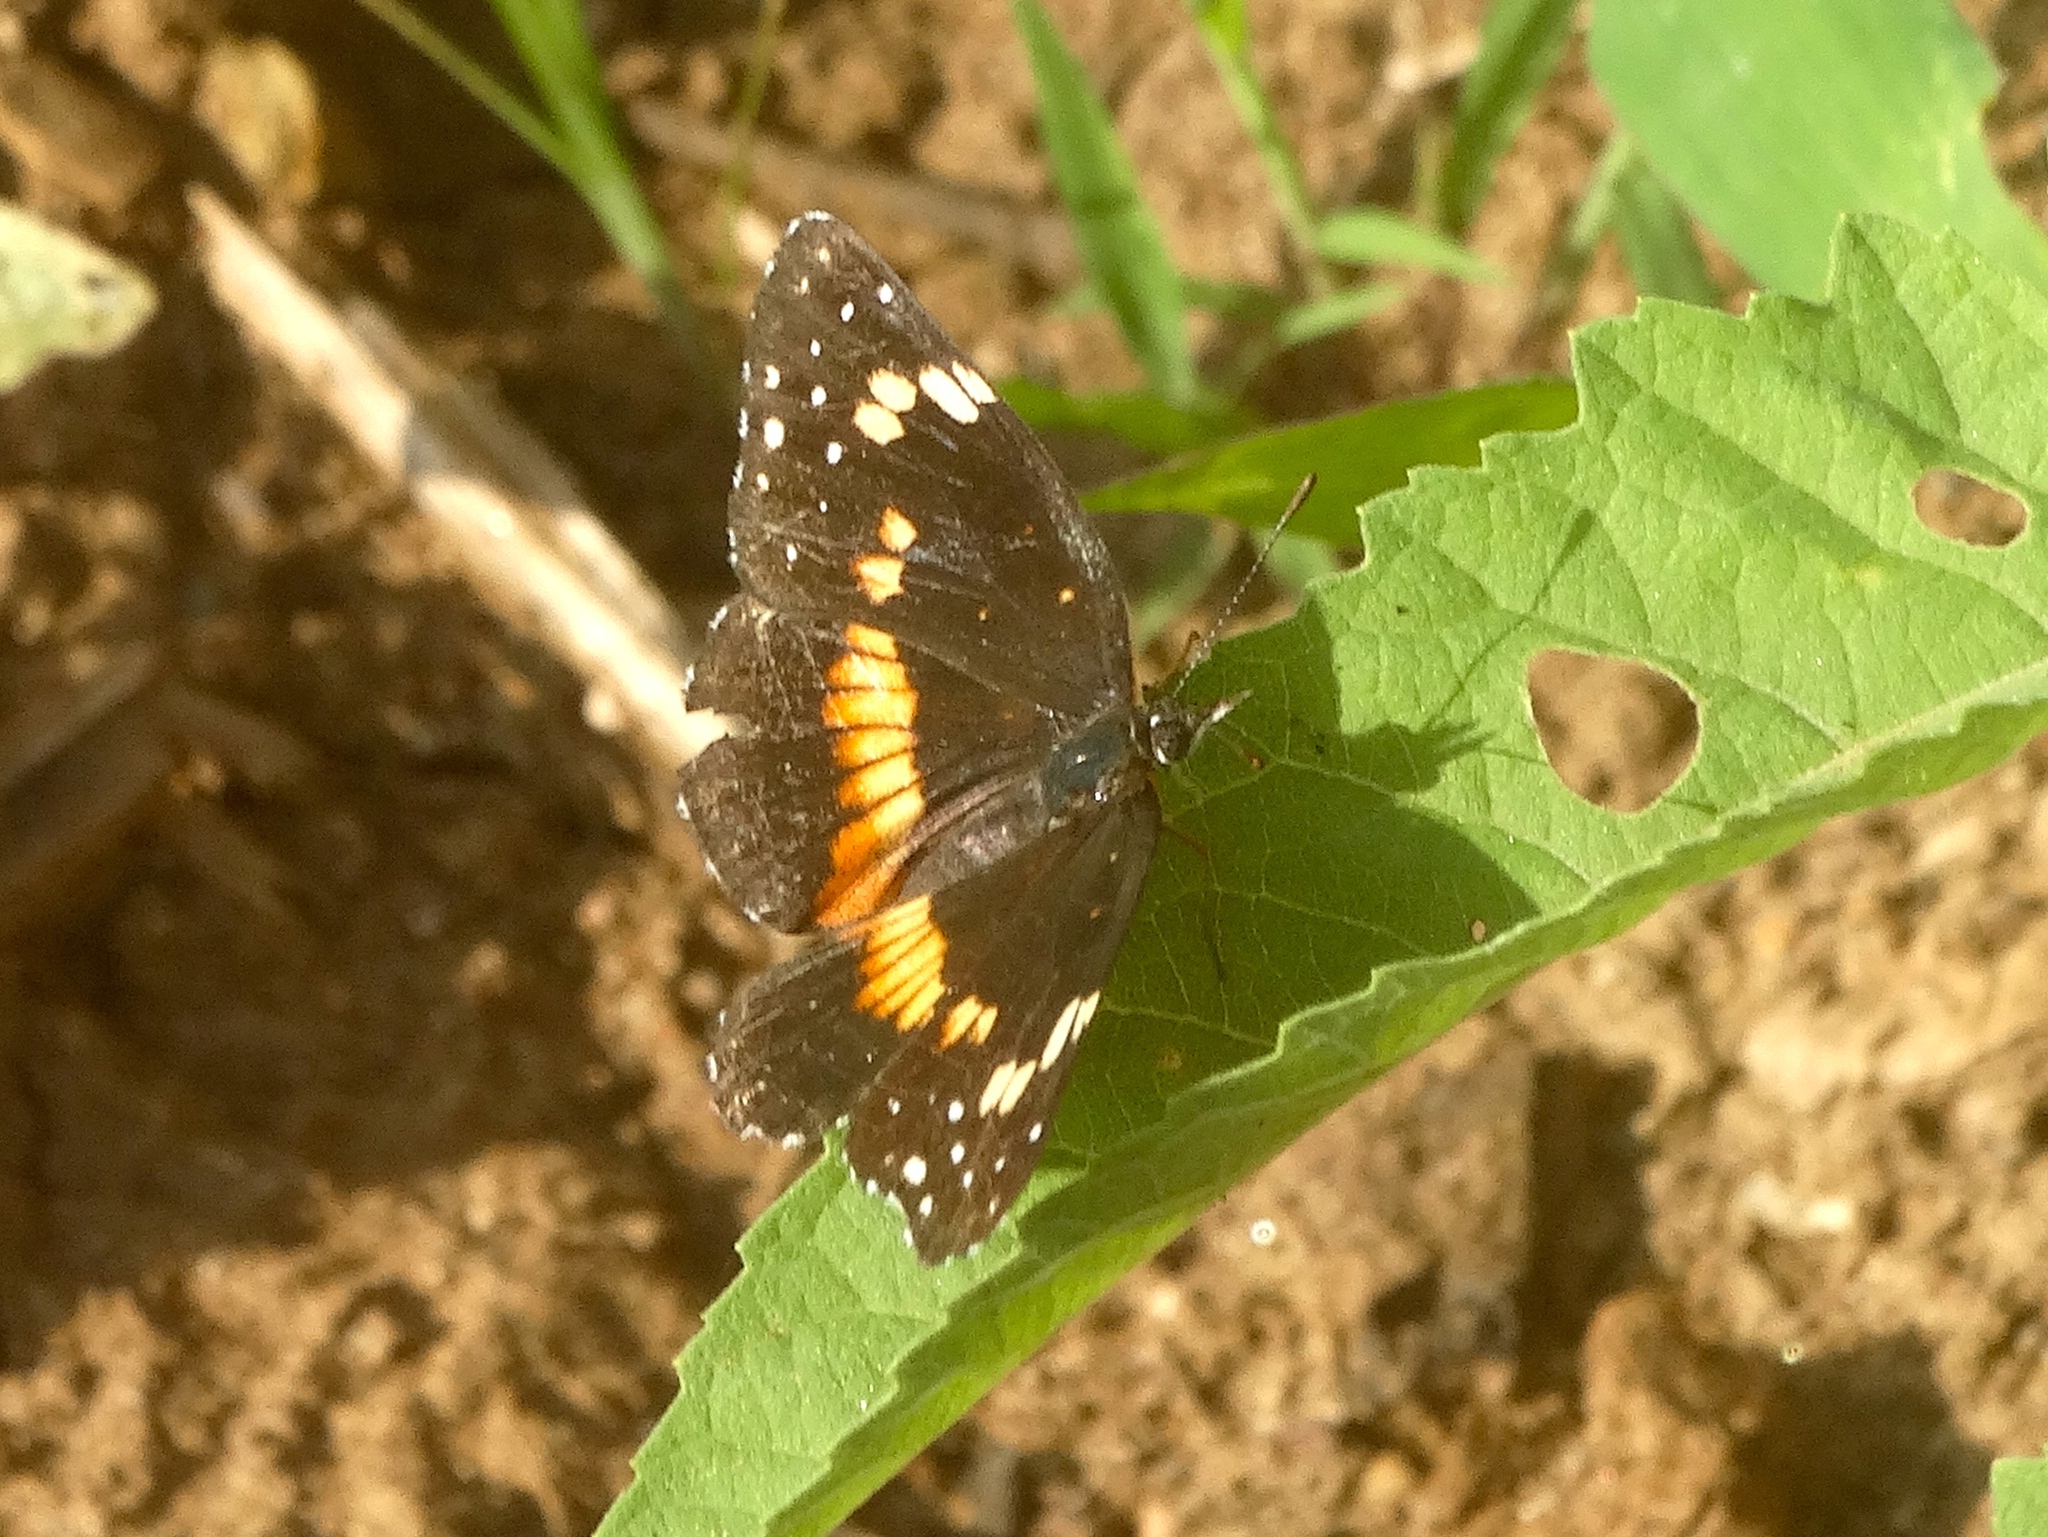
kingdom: Animalia
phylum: Arthropoda
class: Insecta
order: Lepidoptera
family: Nymphalidae
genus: Chlosyne
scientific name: Chlosyne lacinia
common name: Bordered patch
